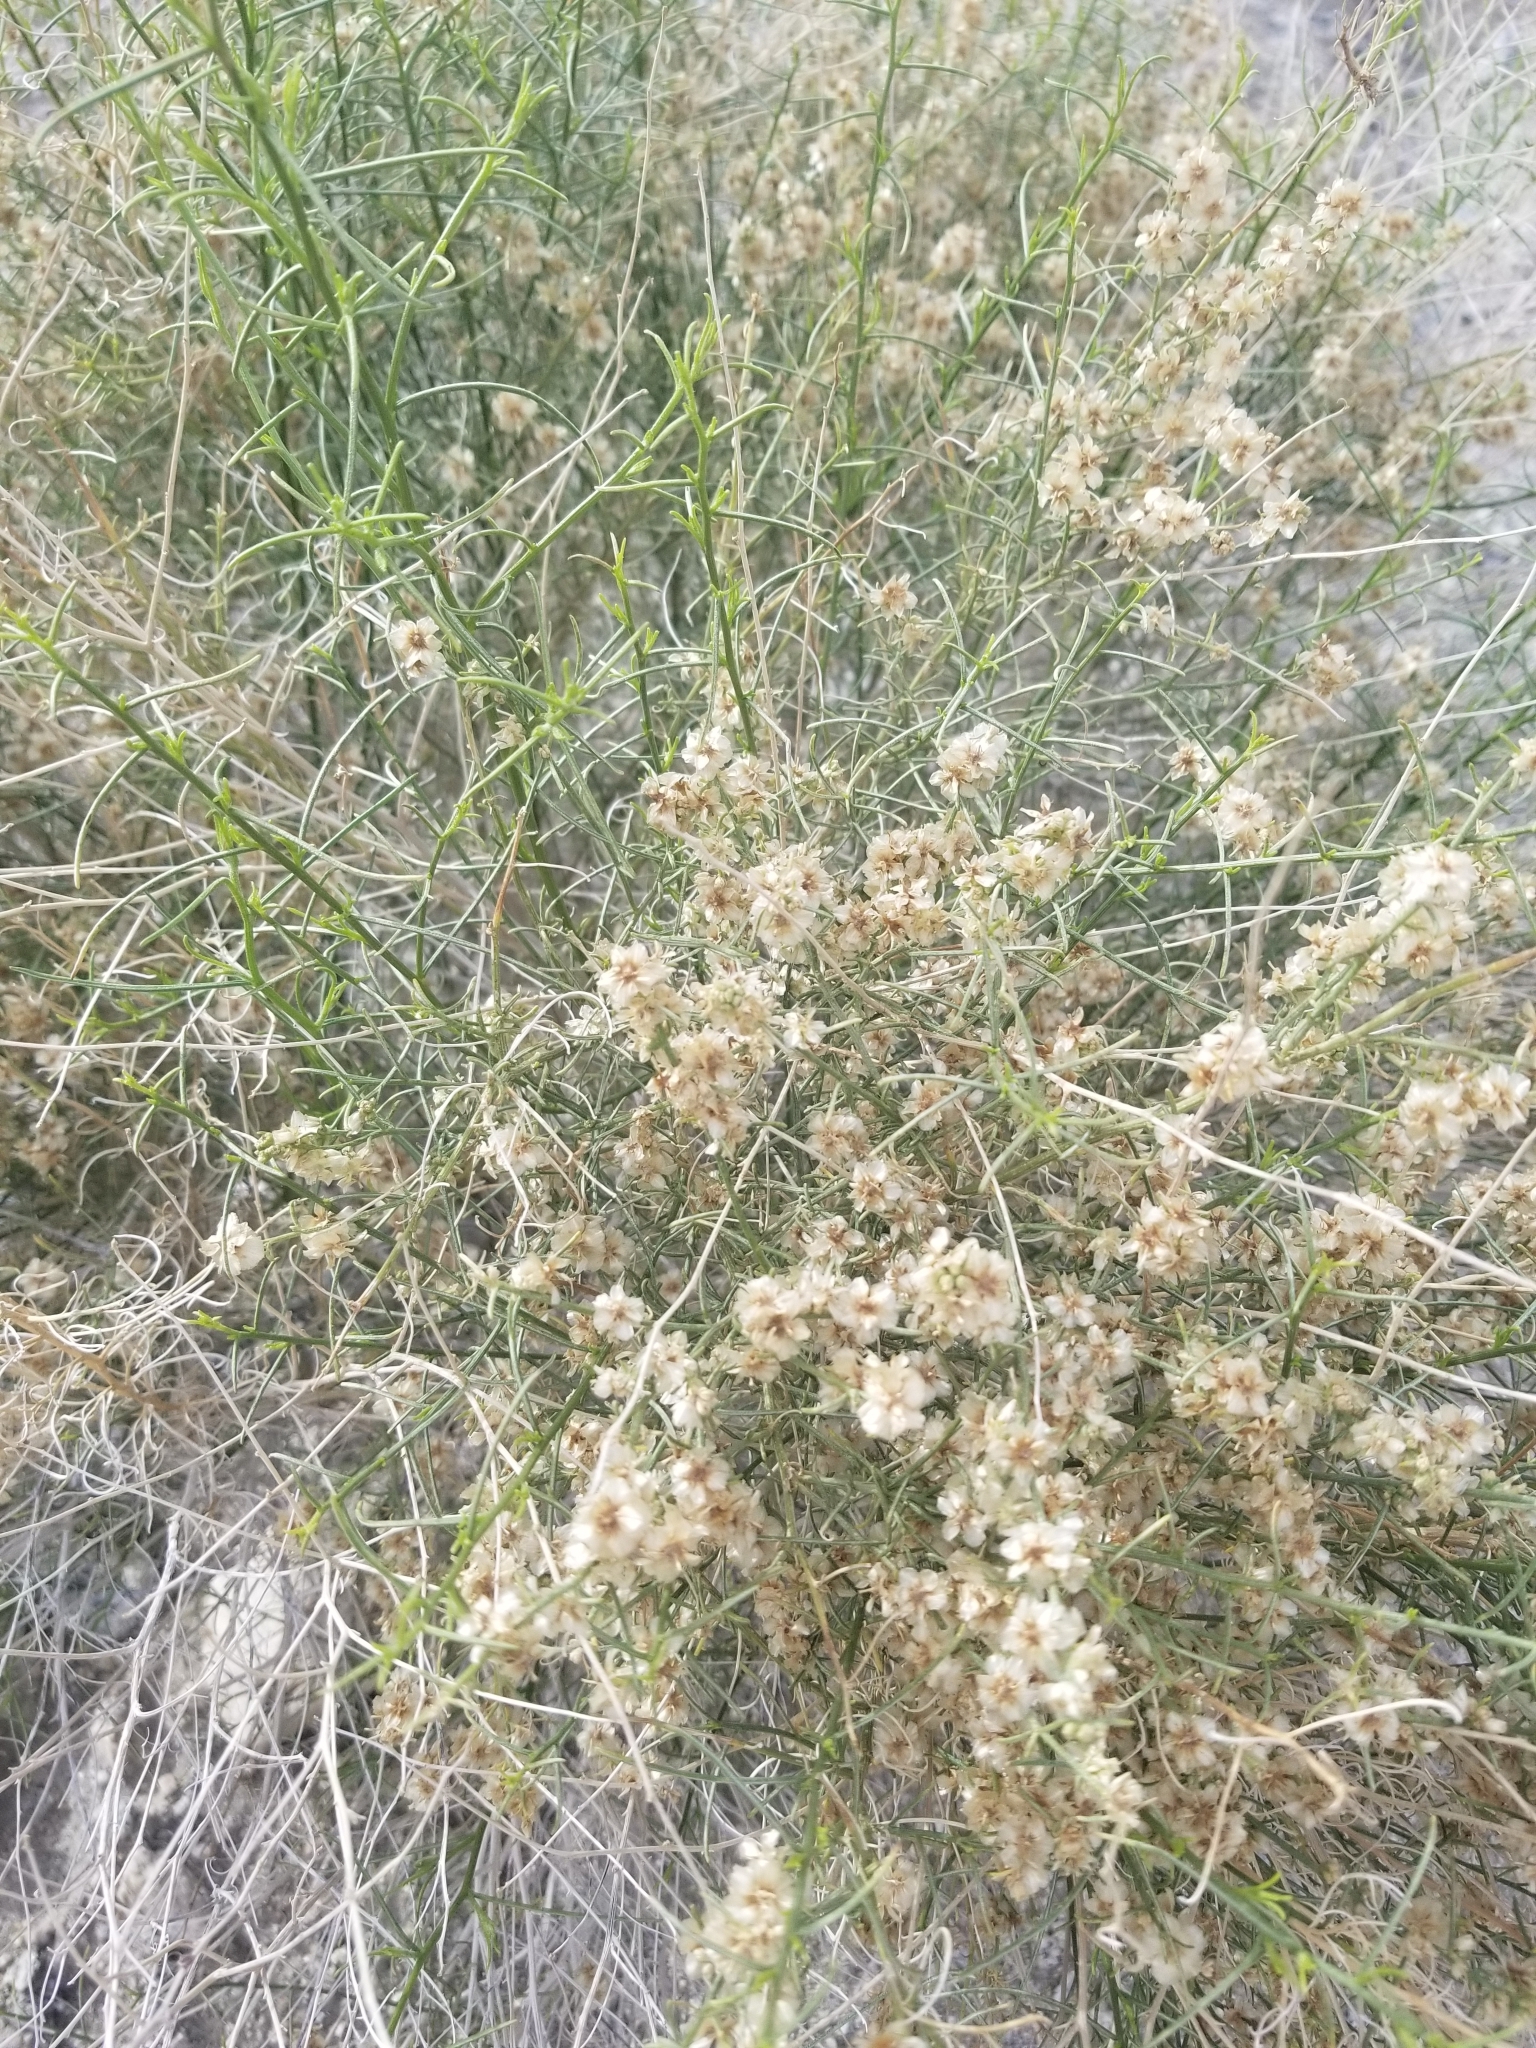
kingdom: Plantae
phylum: Tracheophyta
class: Magnoliopsida
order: Asterales
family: Asteraceae
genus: Ambrosia
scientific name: Ambrosia salsola
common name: Burrobrush
